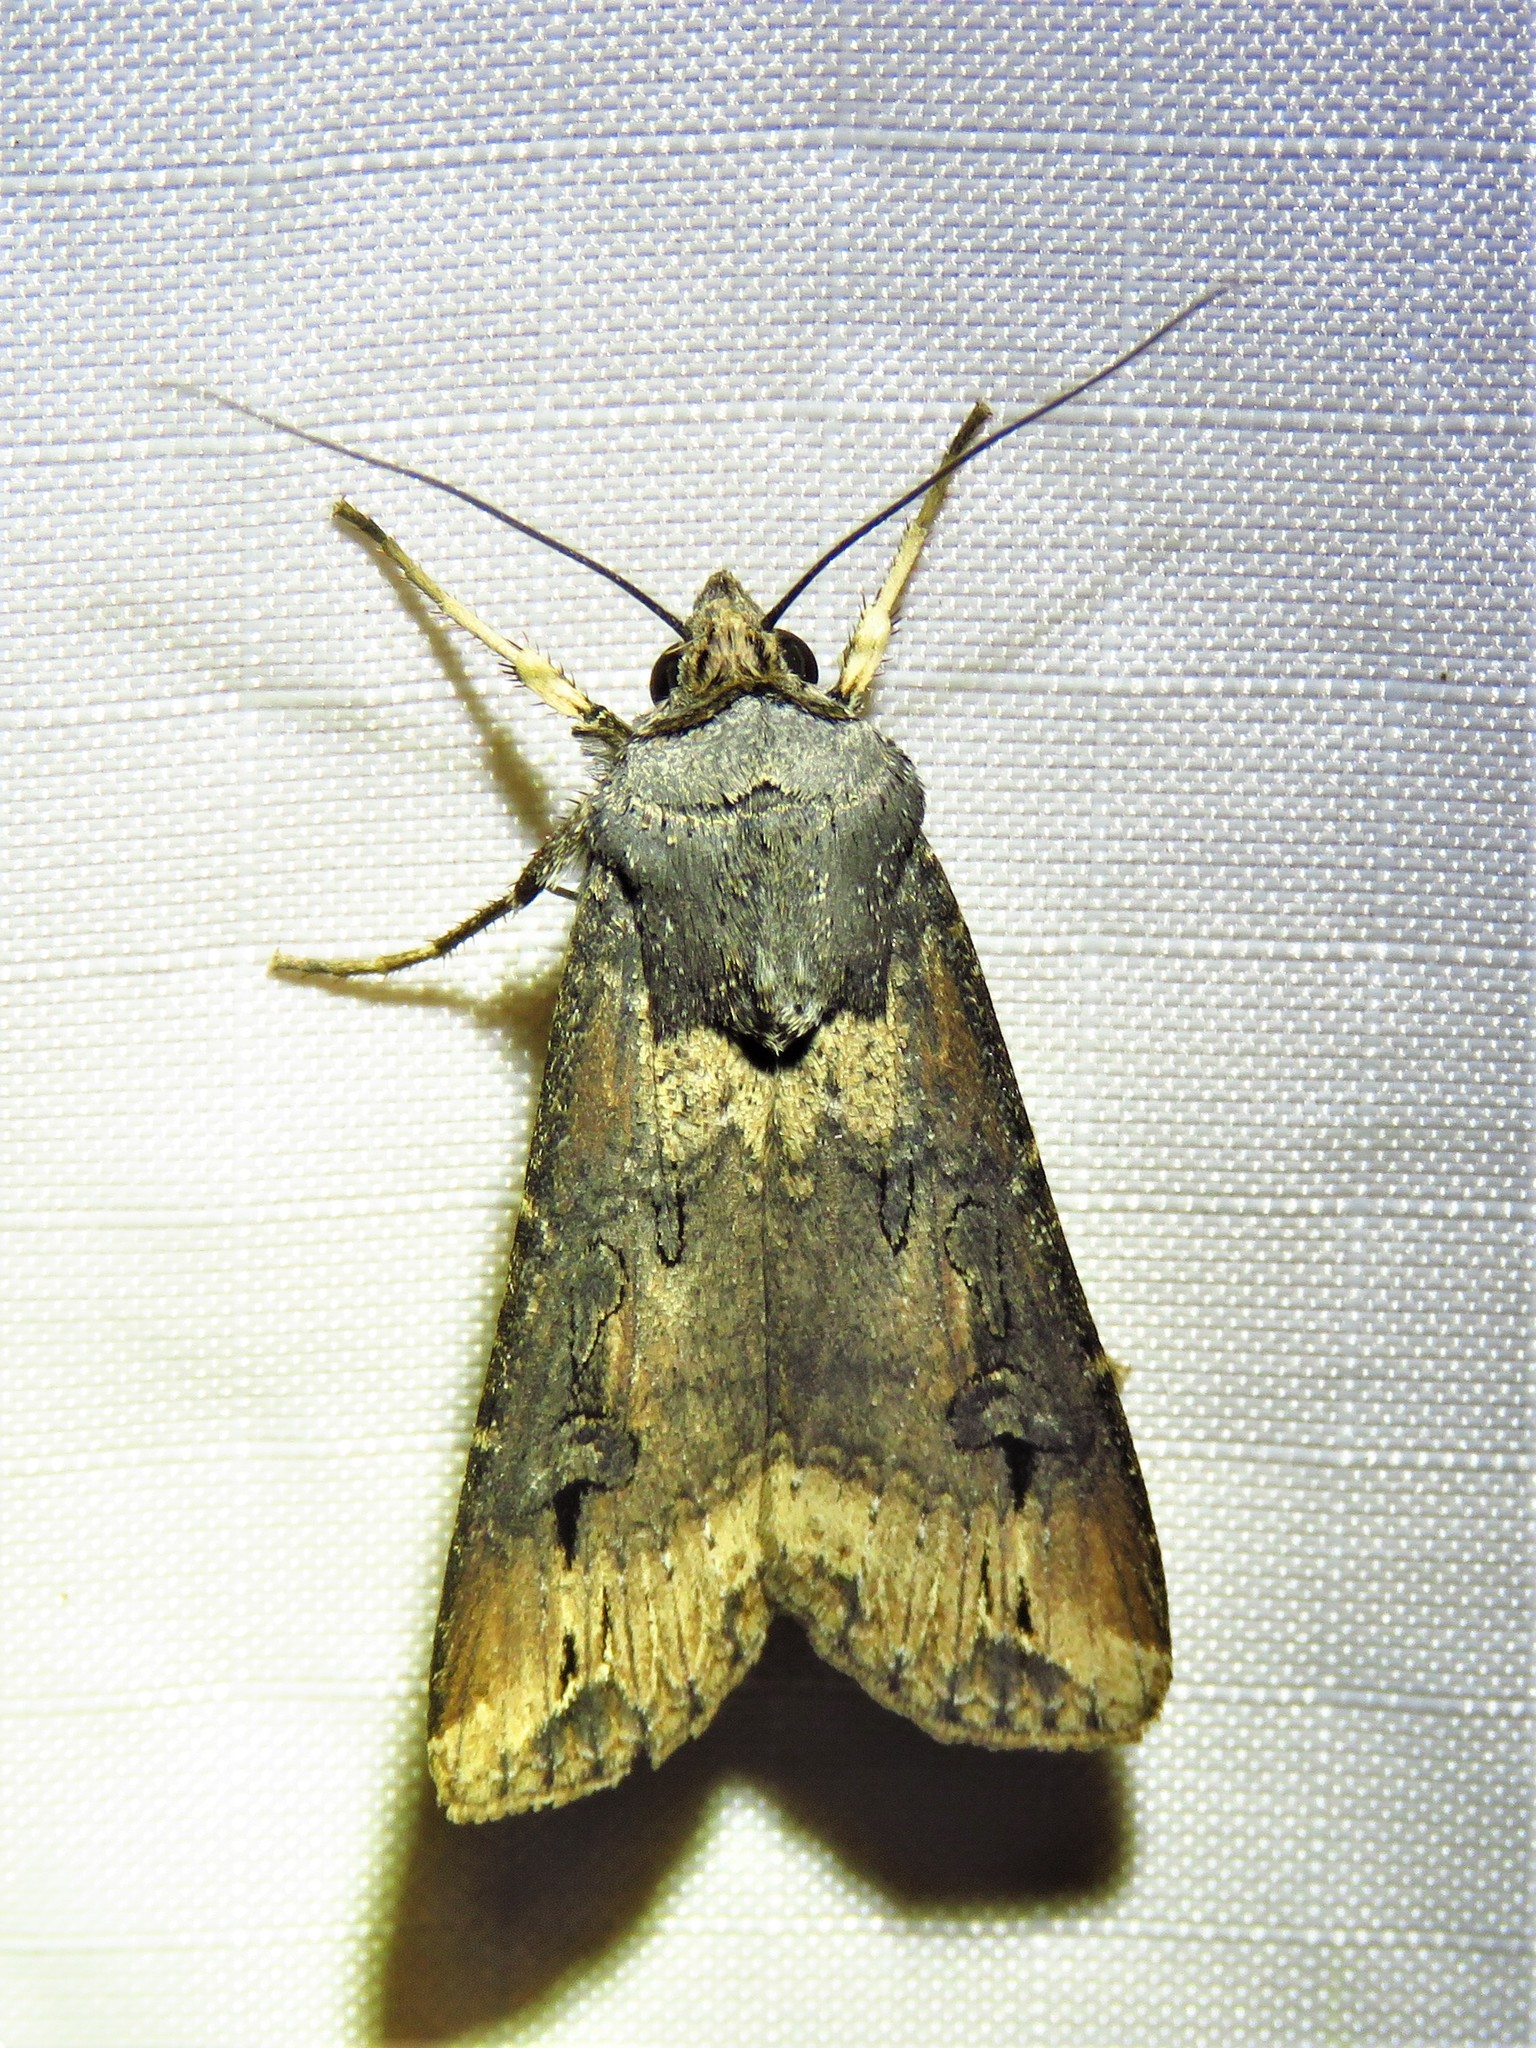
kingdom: Animalia
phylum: Arthropoda
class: Insecta
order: Lepidoptera
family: Noctuidae
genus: Agrotis
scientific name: Agrotis ipsilon
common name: Dark sword-grass
